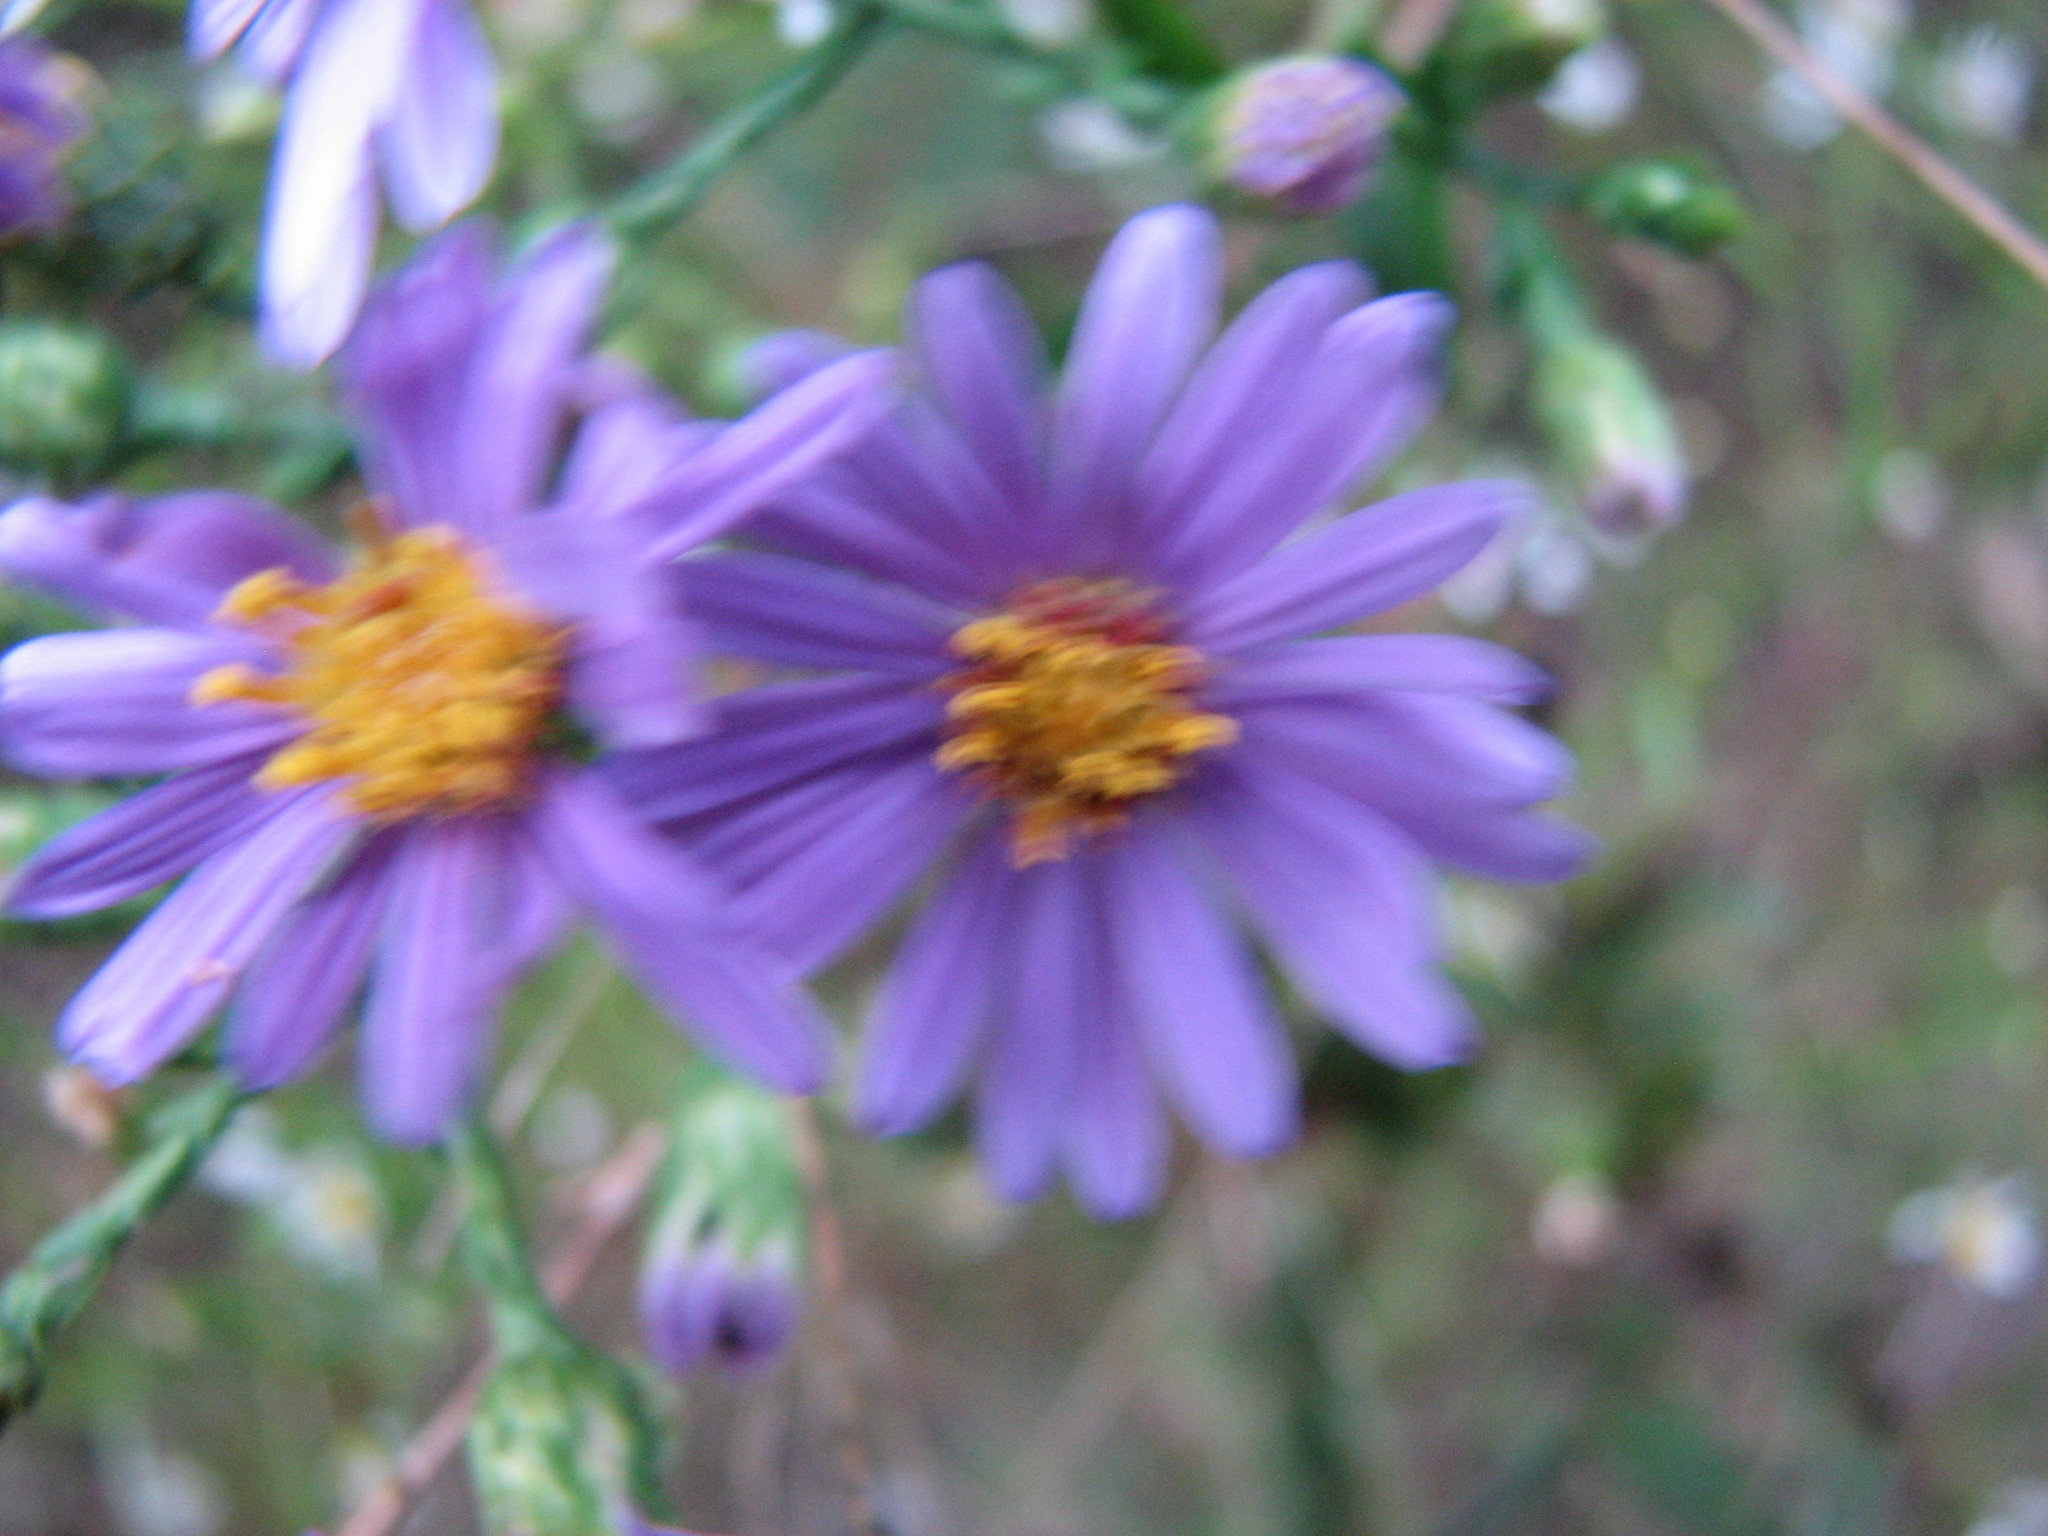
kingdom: Plantae
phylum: Tracheophyta
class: Magnoliopsida
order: Asterales
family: Asteraceae
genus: Symphyotrichum
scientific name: Symphyotrichum laeve
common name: Glaucous aster
